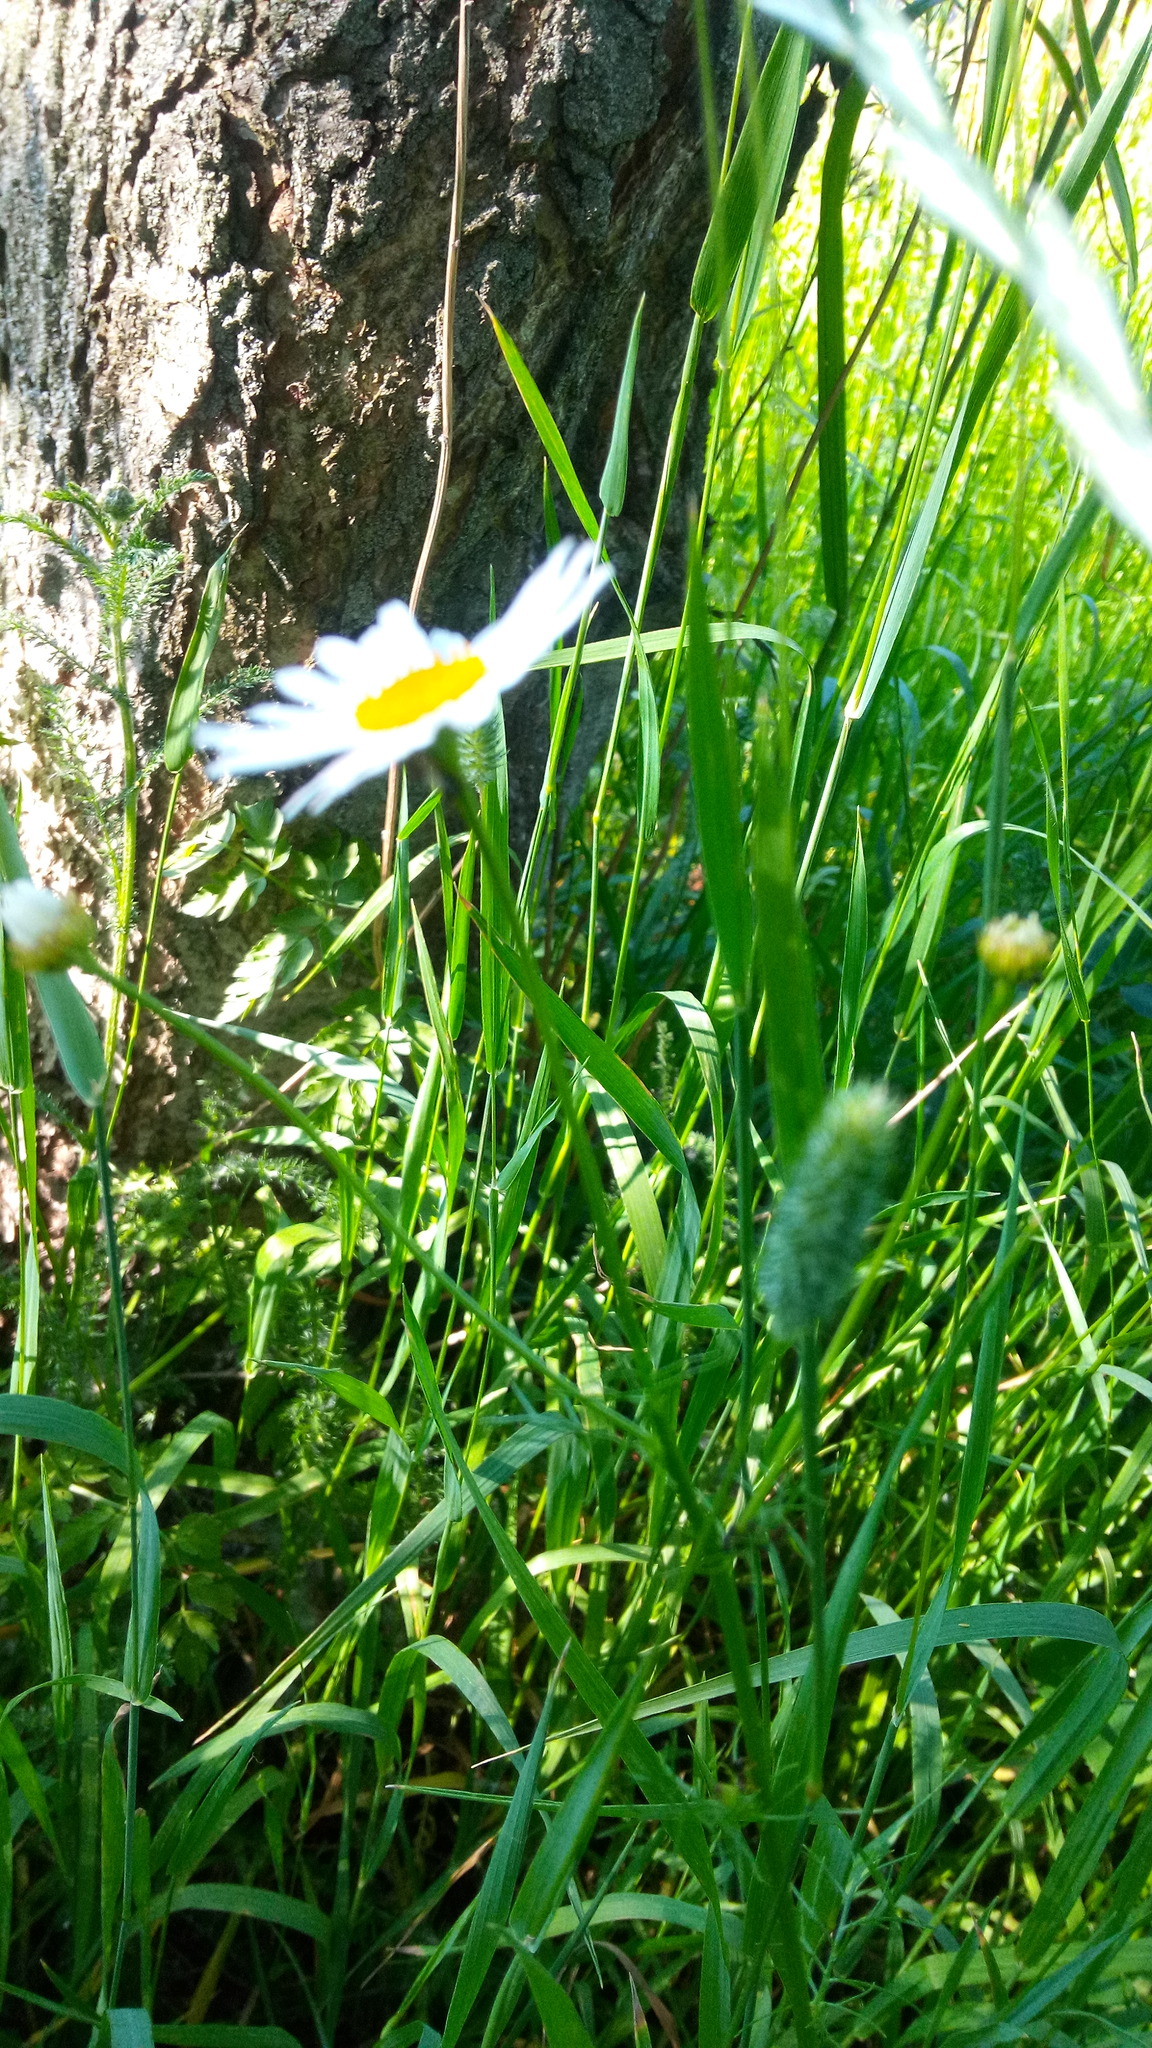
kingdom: Plantae
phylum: Tracheophyta
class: Magnoliopsida
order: Asterales
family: Asteraceae
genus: Tripleurospermum
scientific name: Tripleurospermum inodorum
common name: Scentless mayweed
